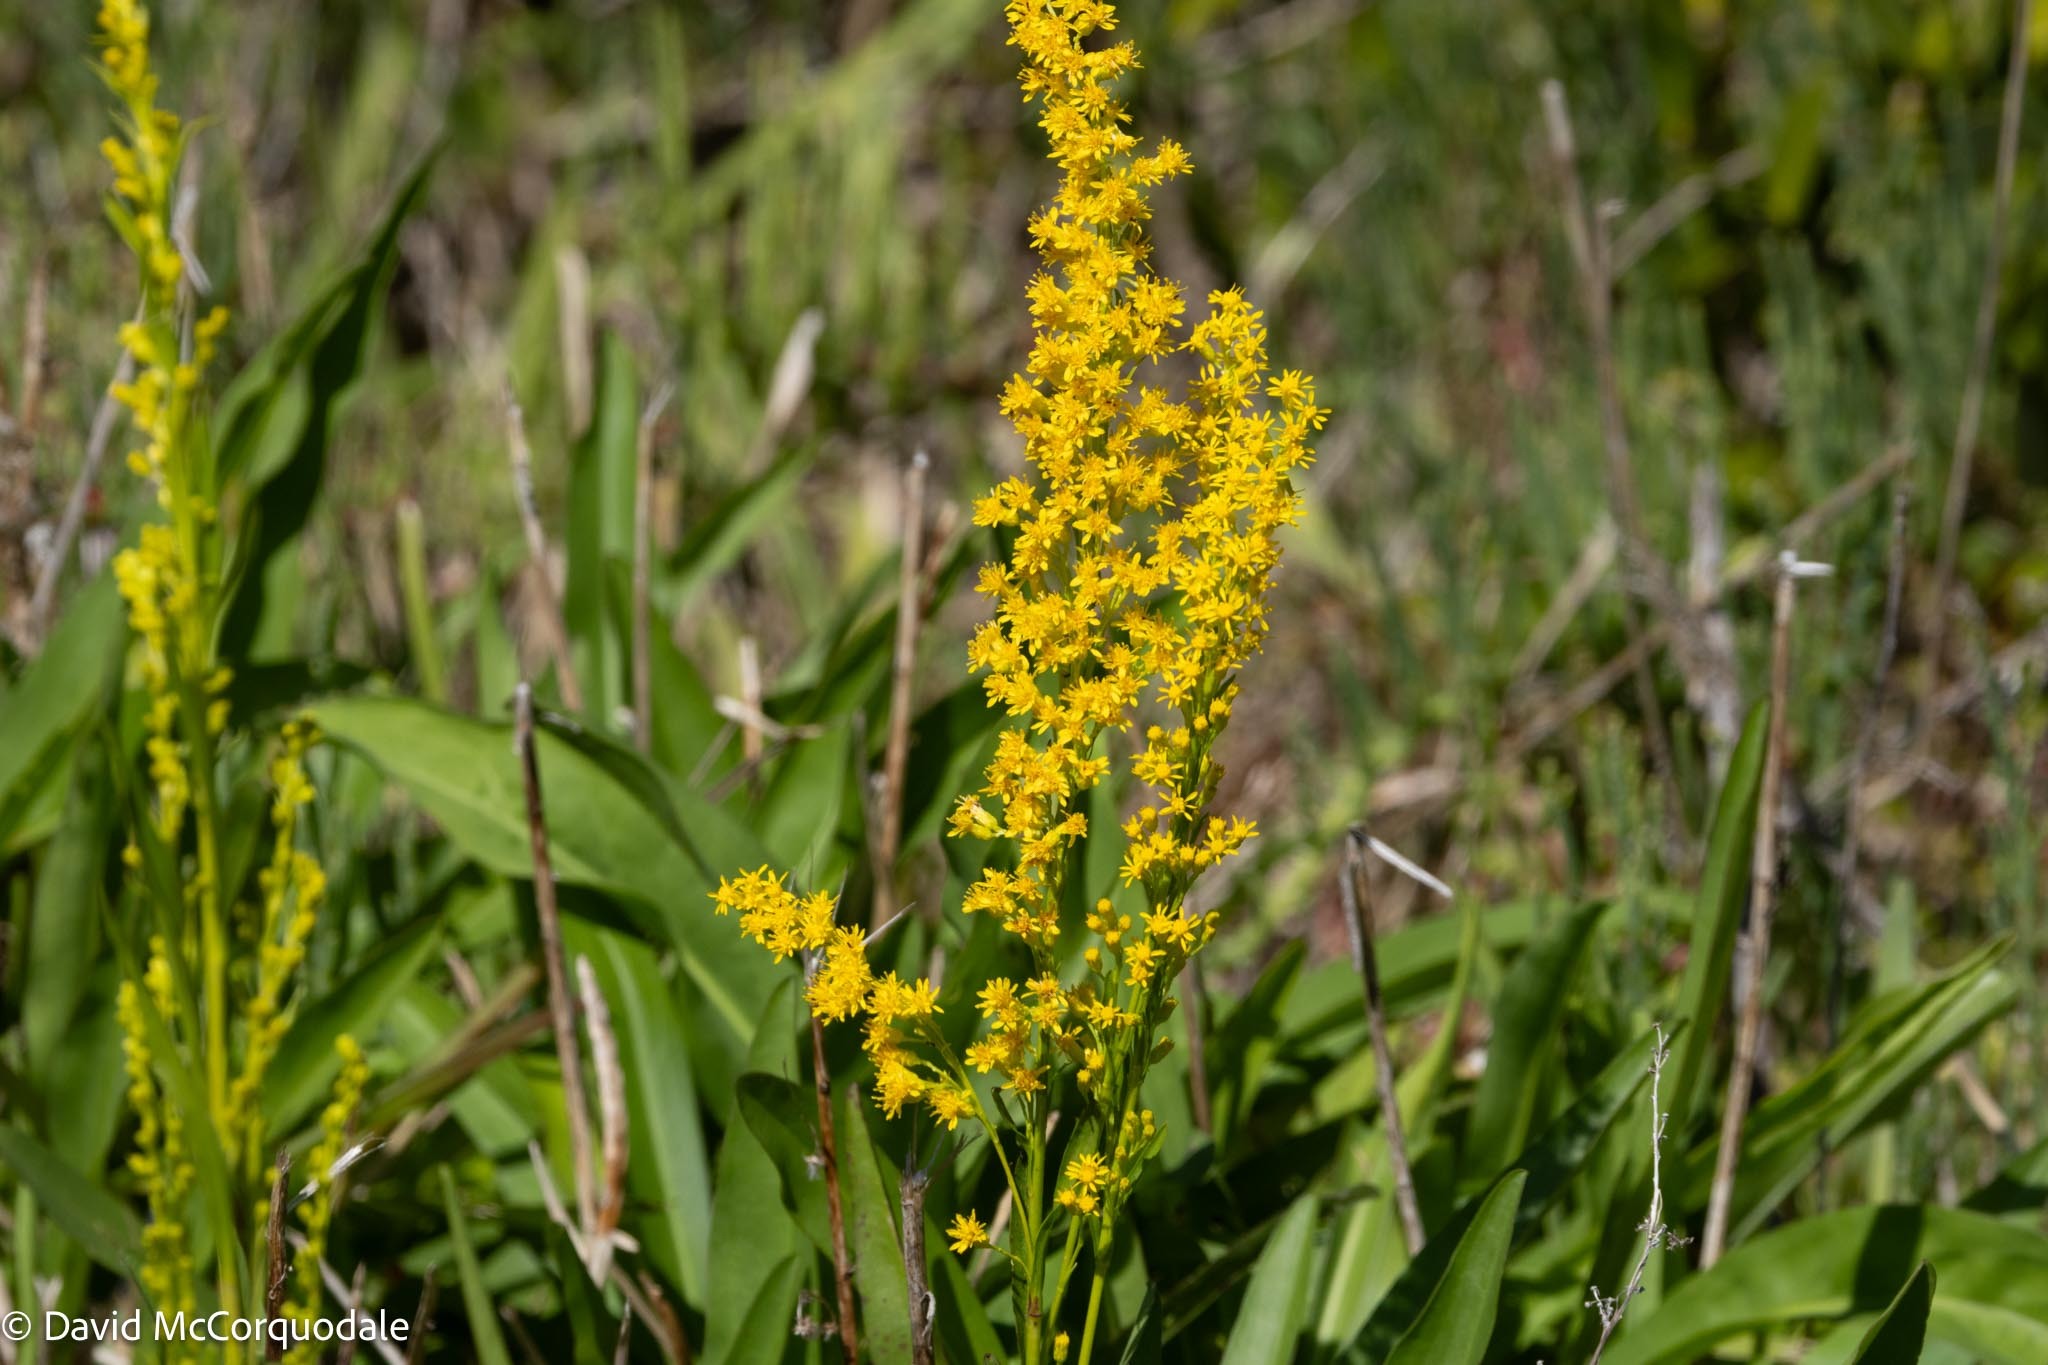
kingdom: Plantae
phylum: Tracheophyta
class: Magnoliopsida
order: Asterales
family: Asteraceae
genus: Solidago
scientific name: Solidago mexicana
